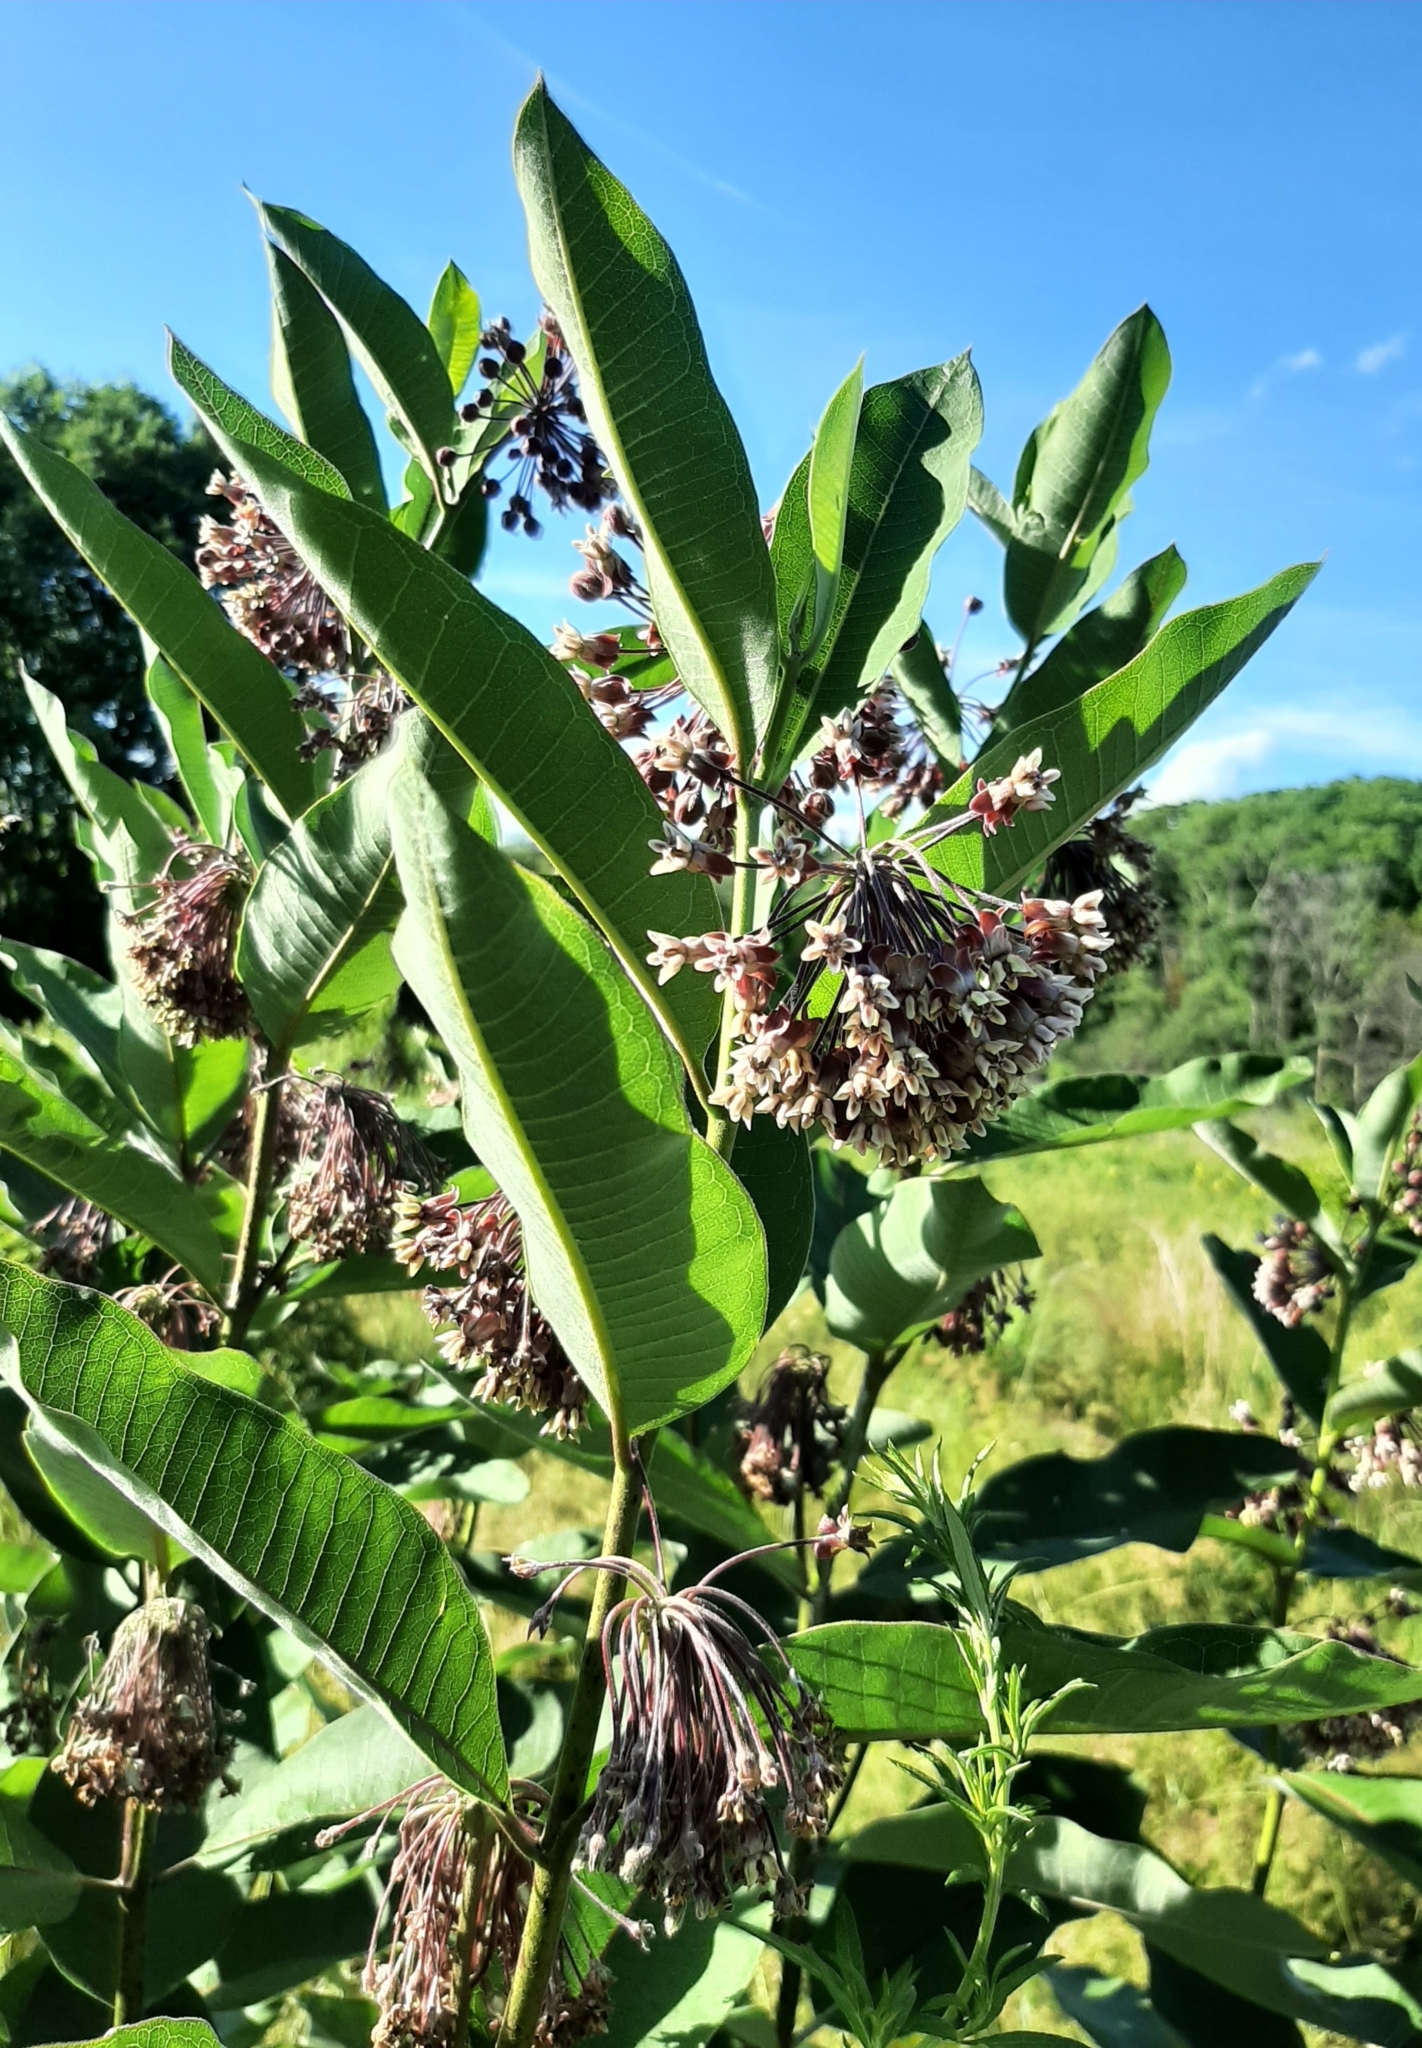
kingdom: Plantae
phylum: Tracheophyta
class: Magnoliopsida
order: Gentianales
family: Apocynaceae
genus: Asclepias
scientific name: Asclepias syriaca
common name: Common milkweed
